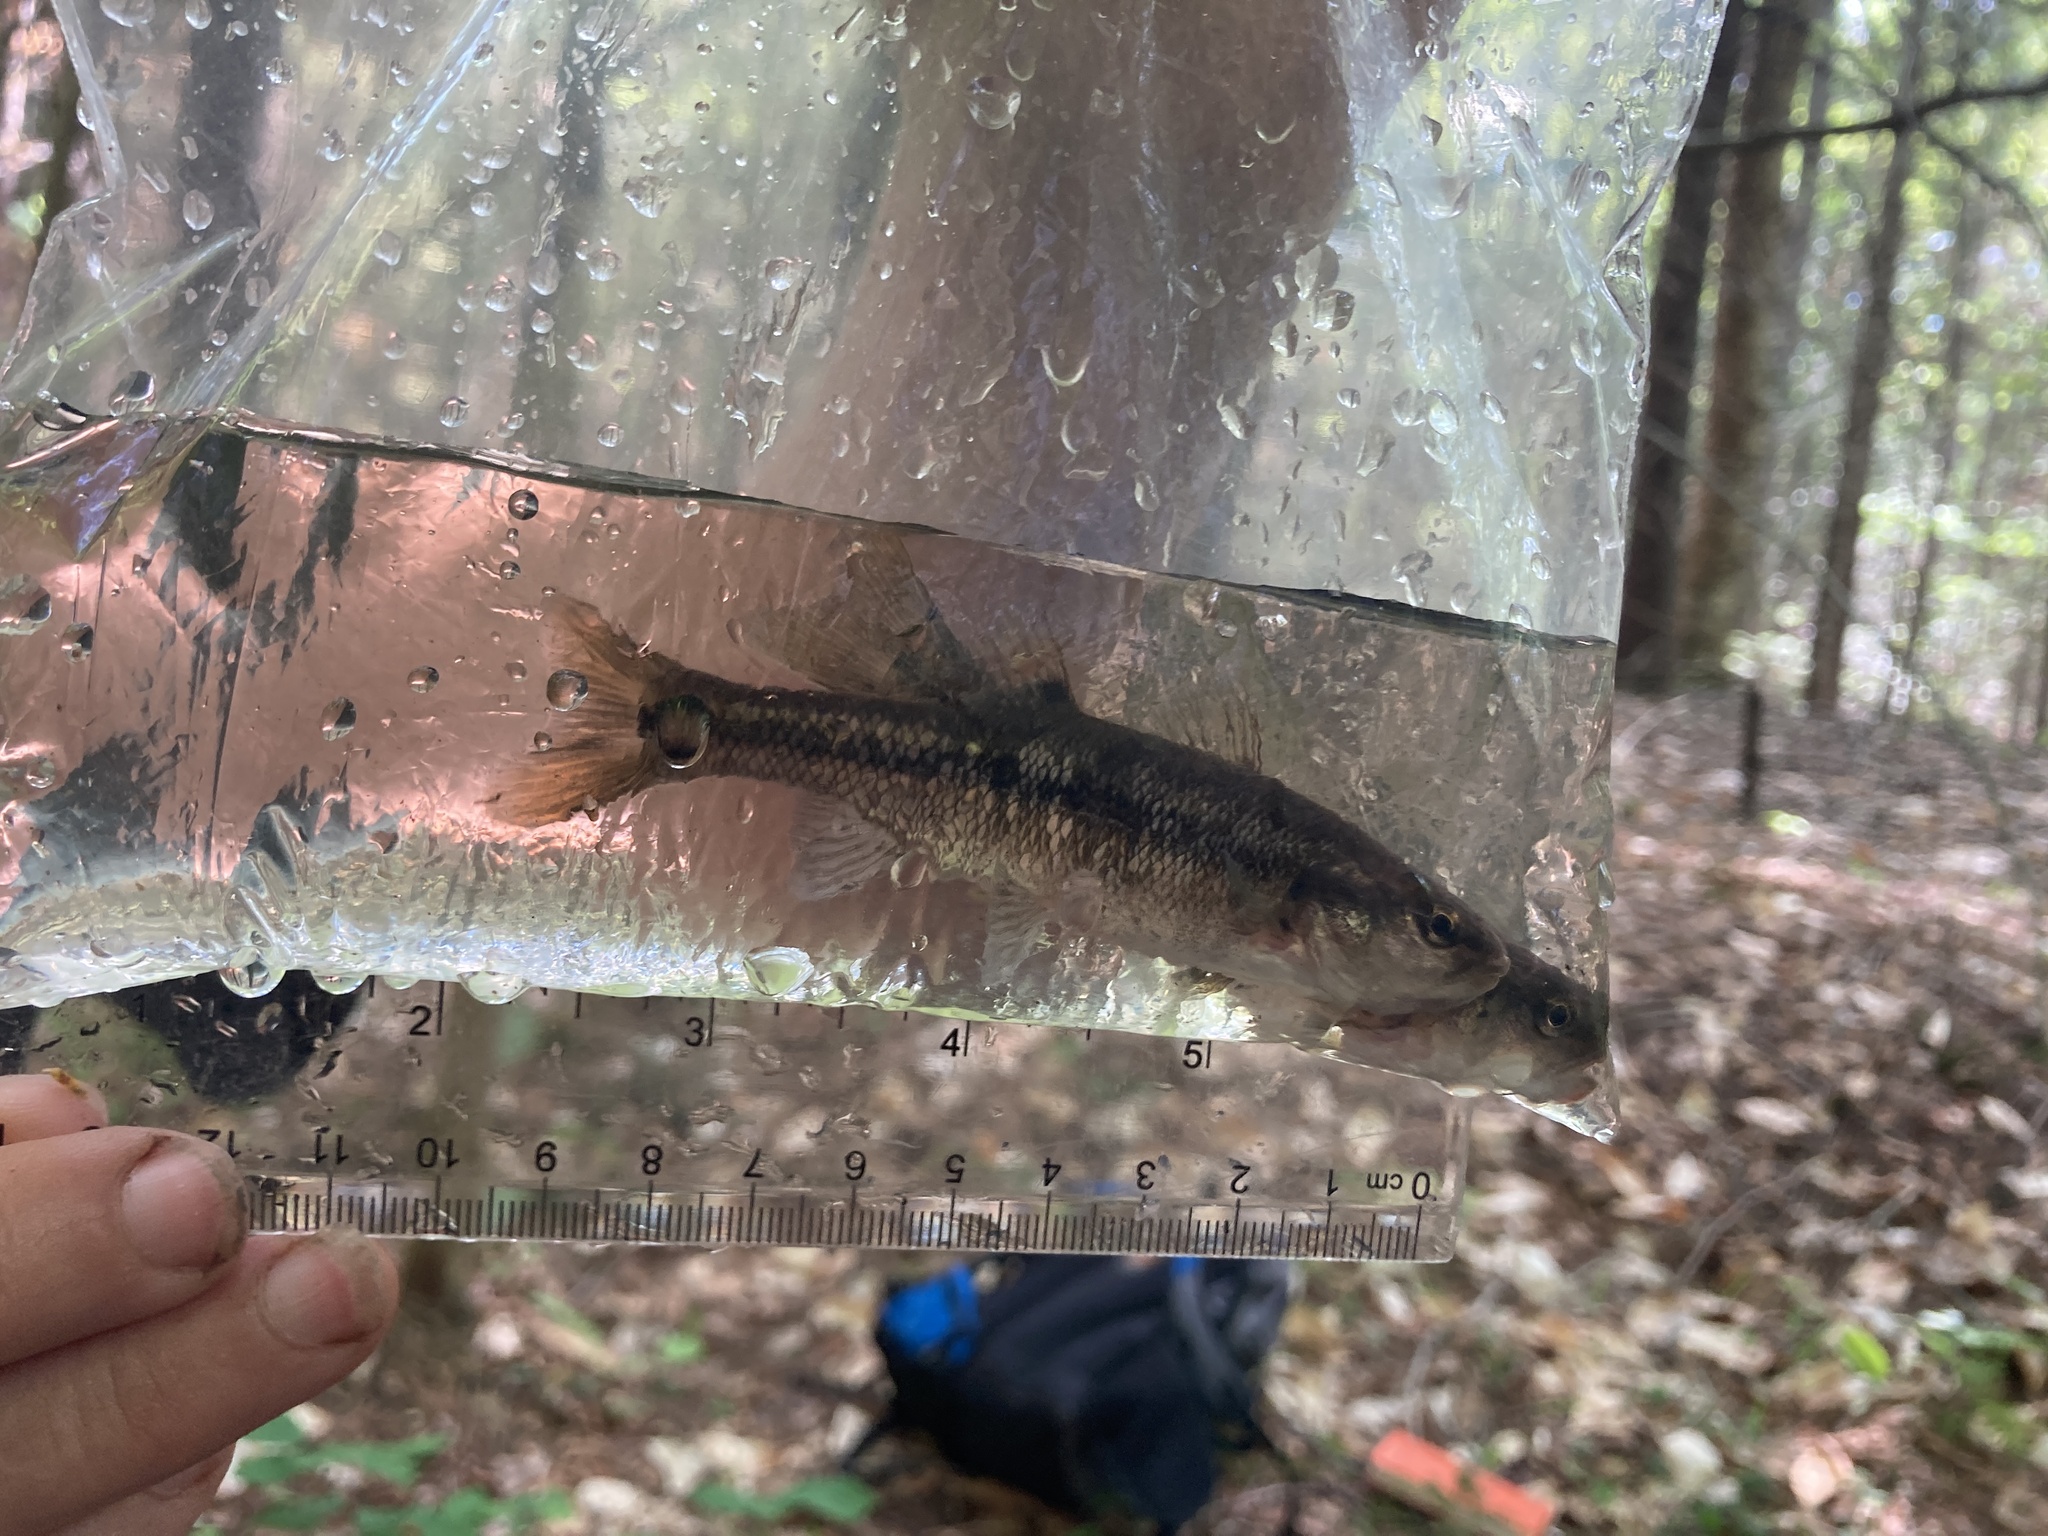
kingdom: Animalia
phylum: Chordata
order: Cypriniformes
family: Cyprinidae
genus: Semotilus
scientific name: Semotilus atromaculatus
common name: Creek chub
